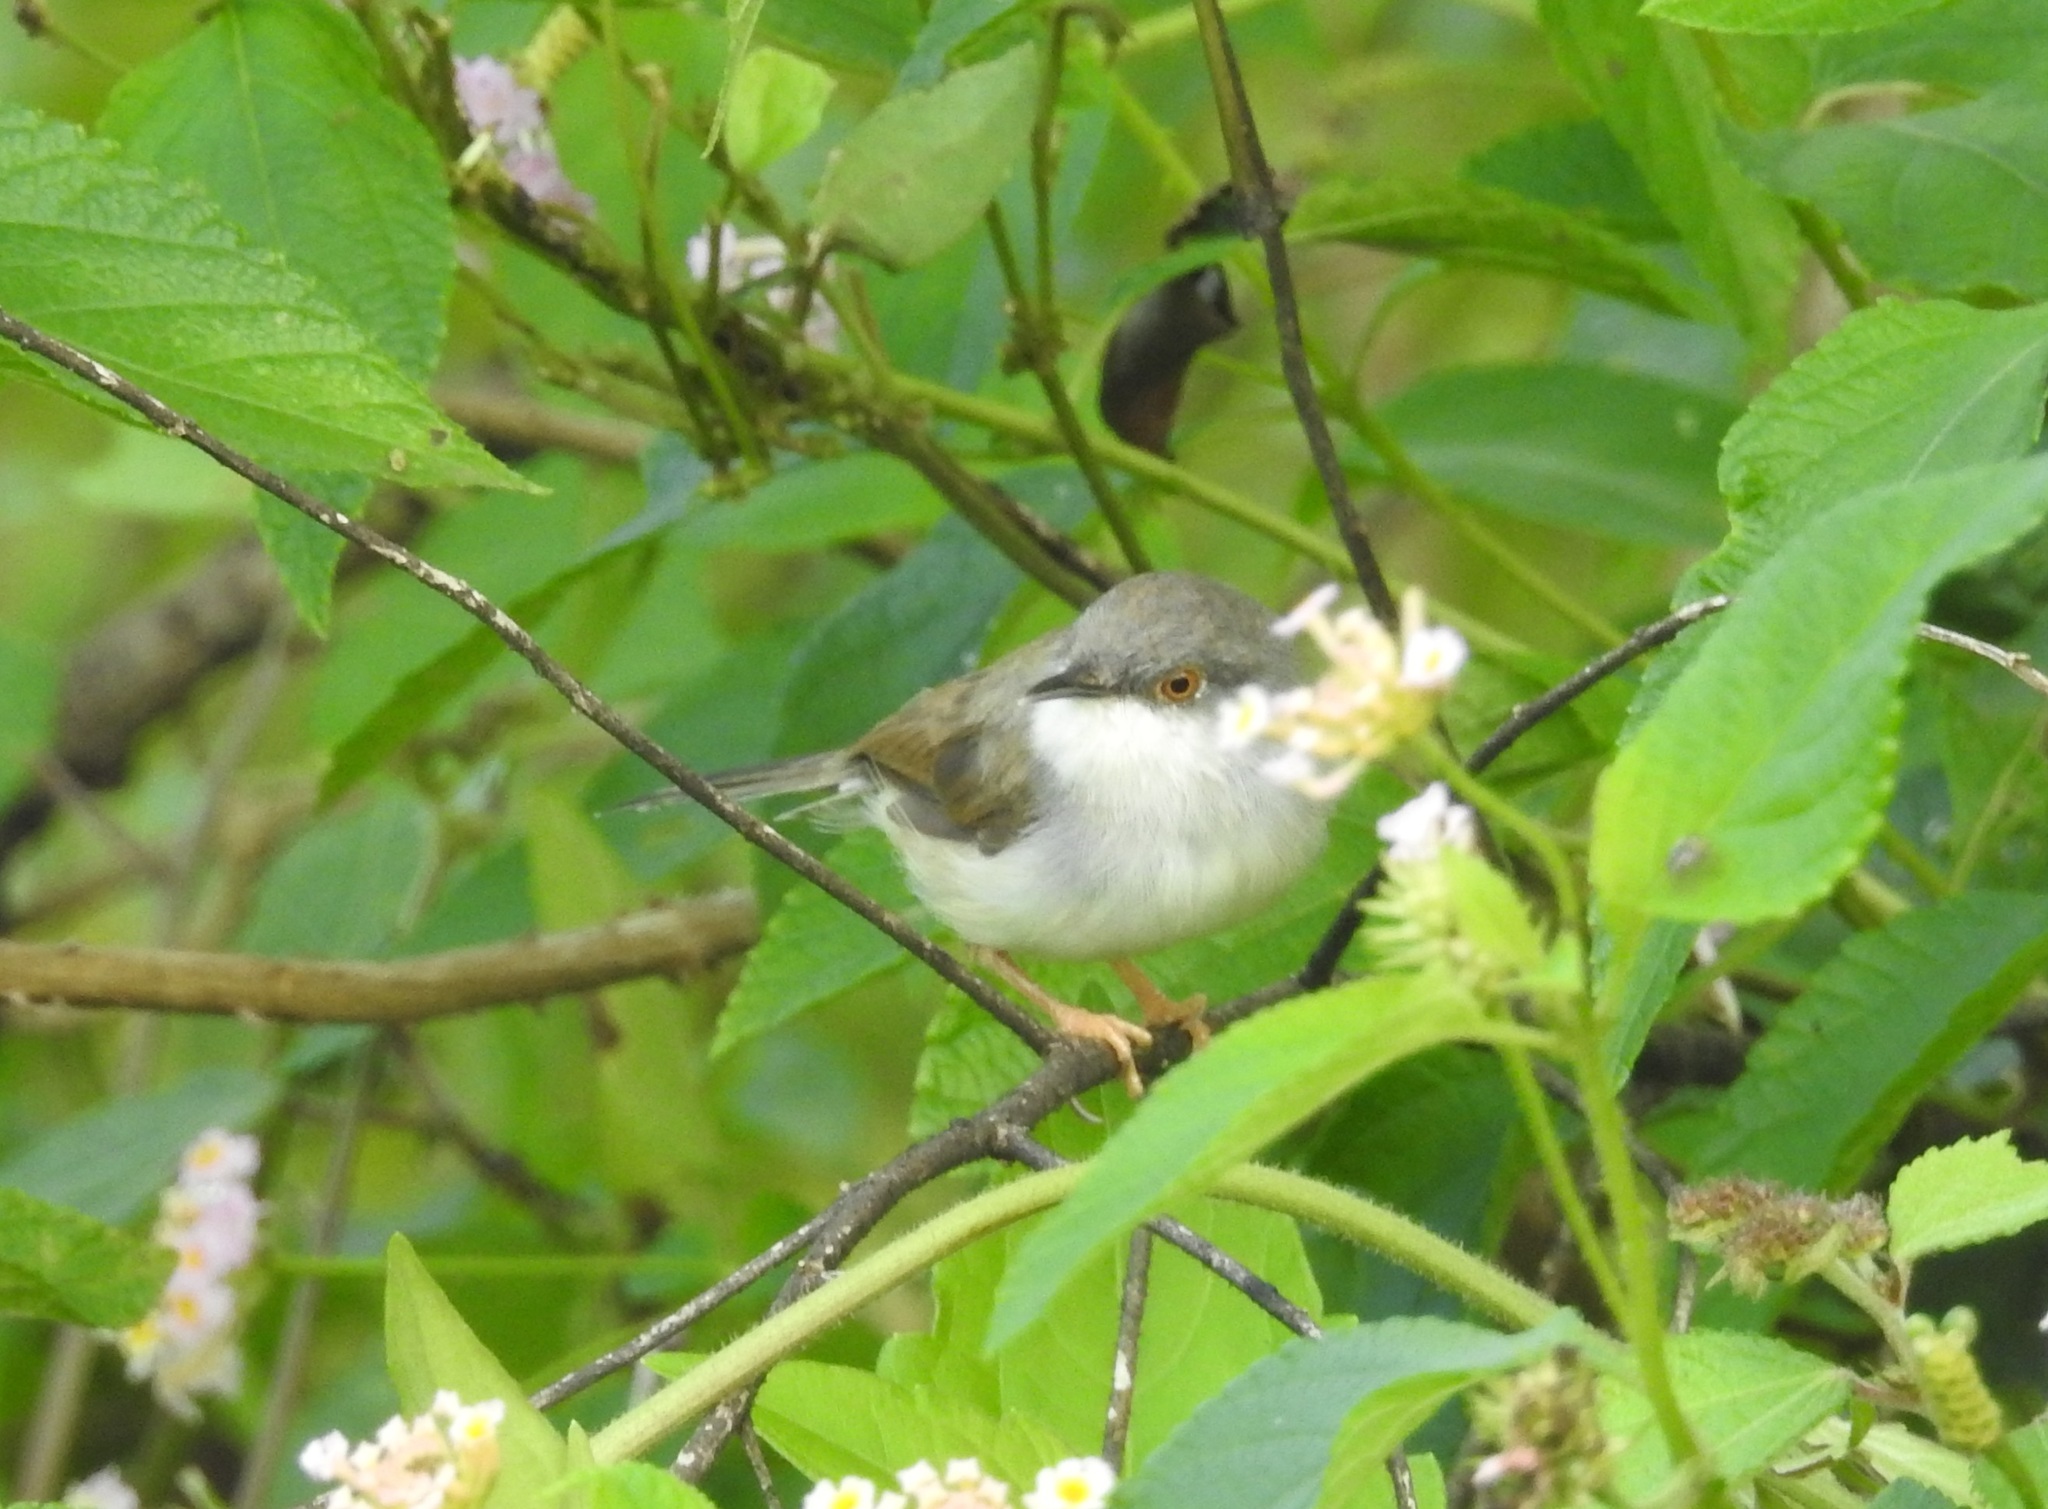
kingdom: Animalia
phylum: Chordata
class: Aves
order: Passeriformes
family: Cisticolidae
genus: Prinia
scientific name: Prinia hodgsonii
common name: Grey-breasted prinia
